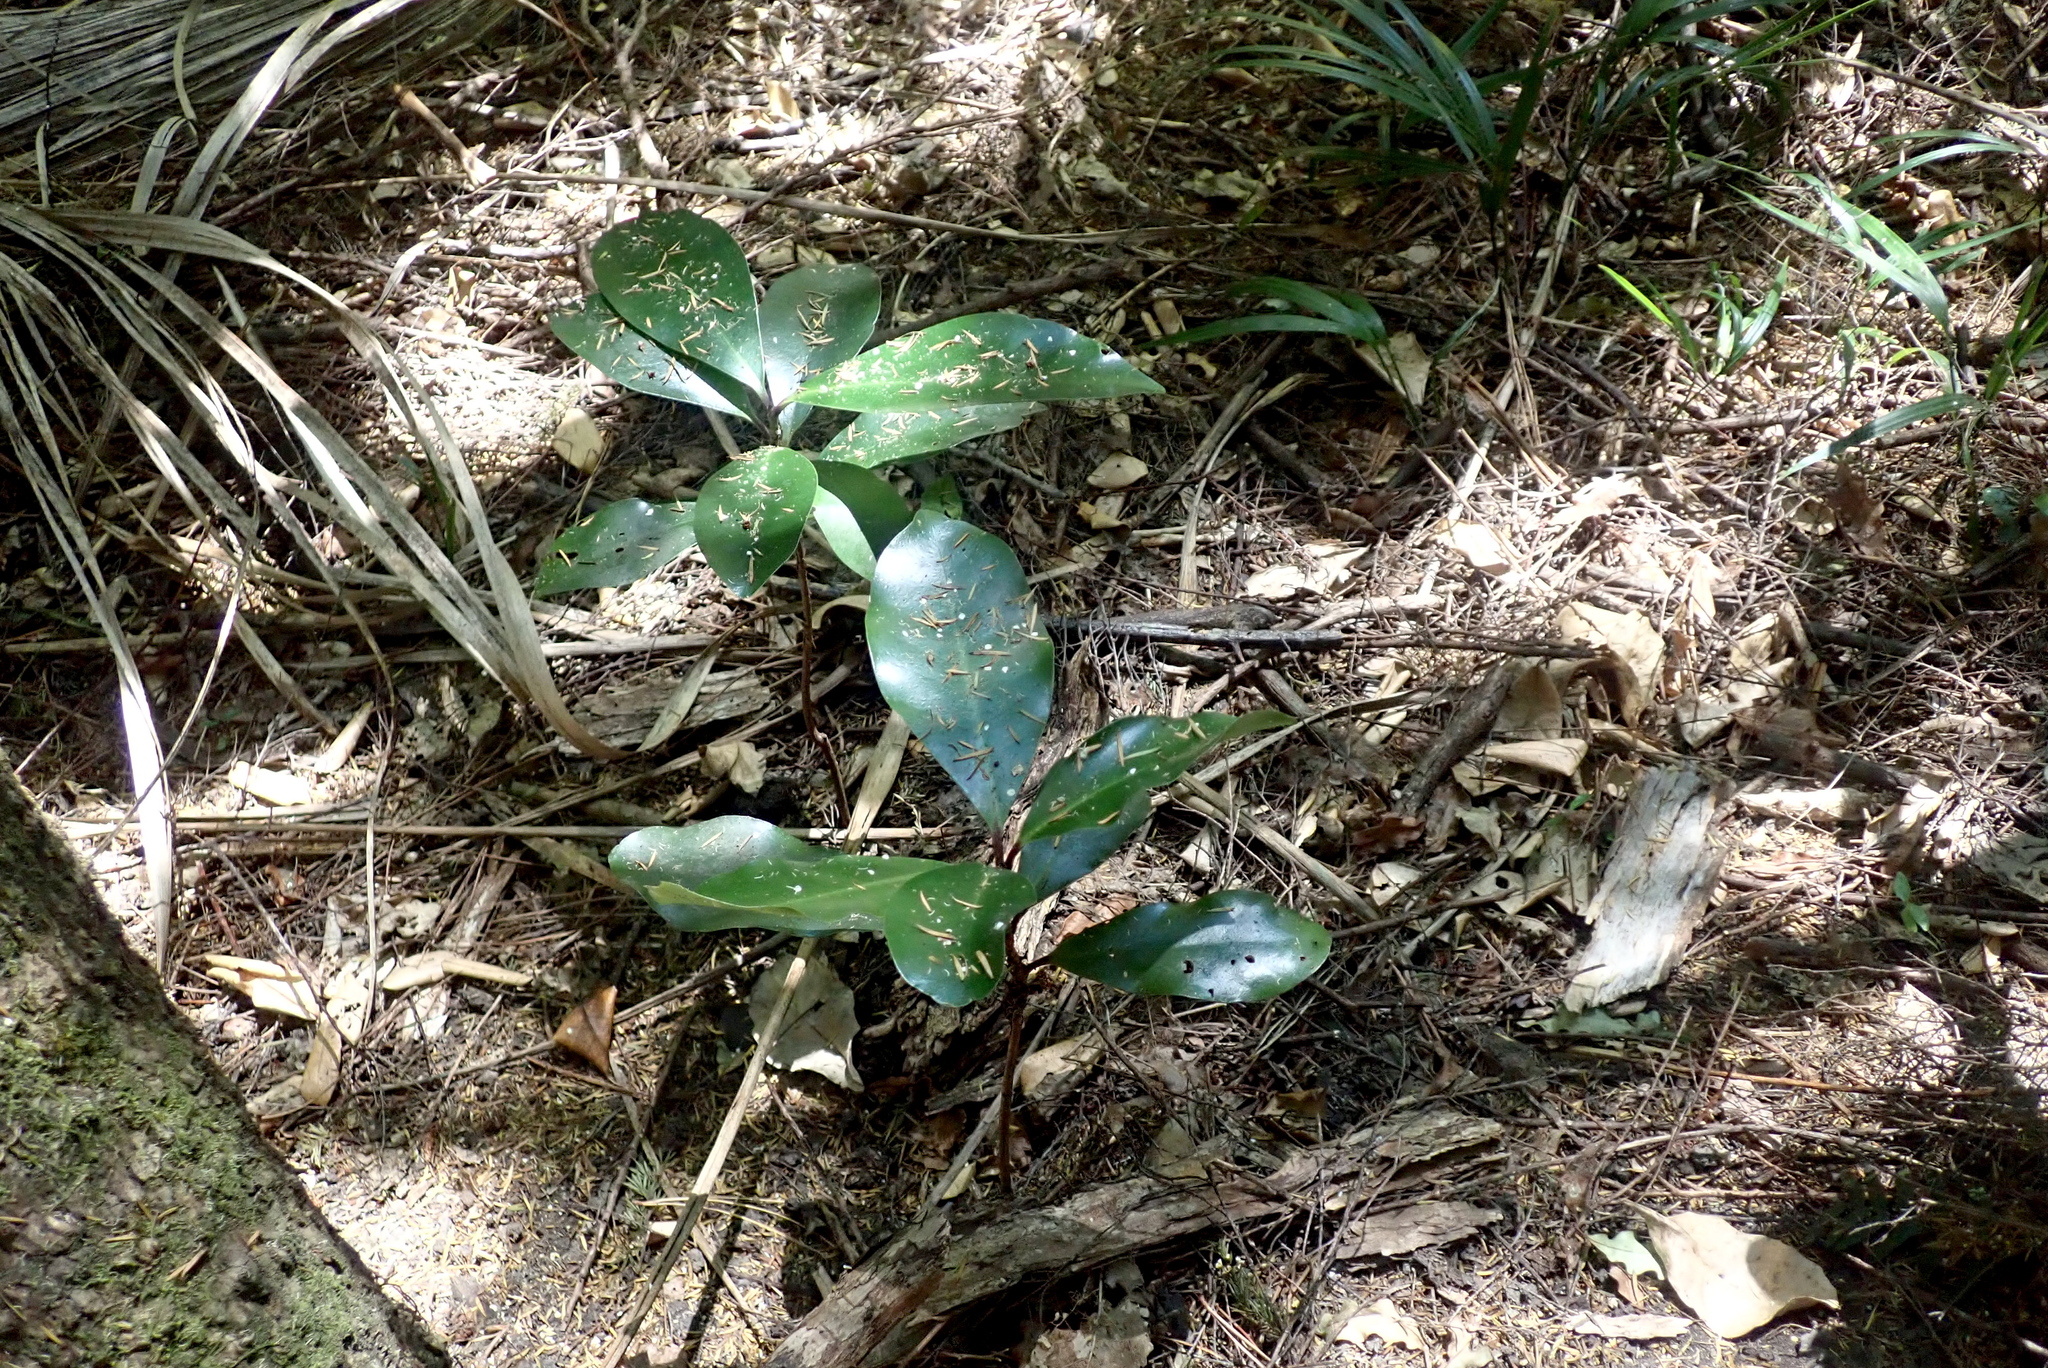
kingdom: Plantae
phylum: Tracheophyta
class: Magnoliopsida
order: Cucurbitales
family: Corynocarpaceae
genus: Corynocarpus
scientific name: Corynocarpus laevigatus
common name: New zealand laurel
